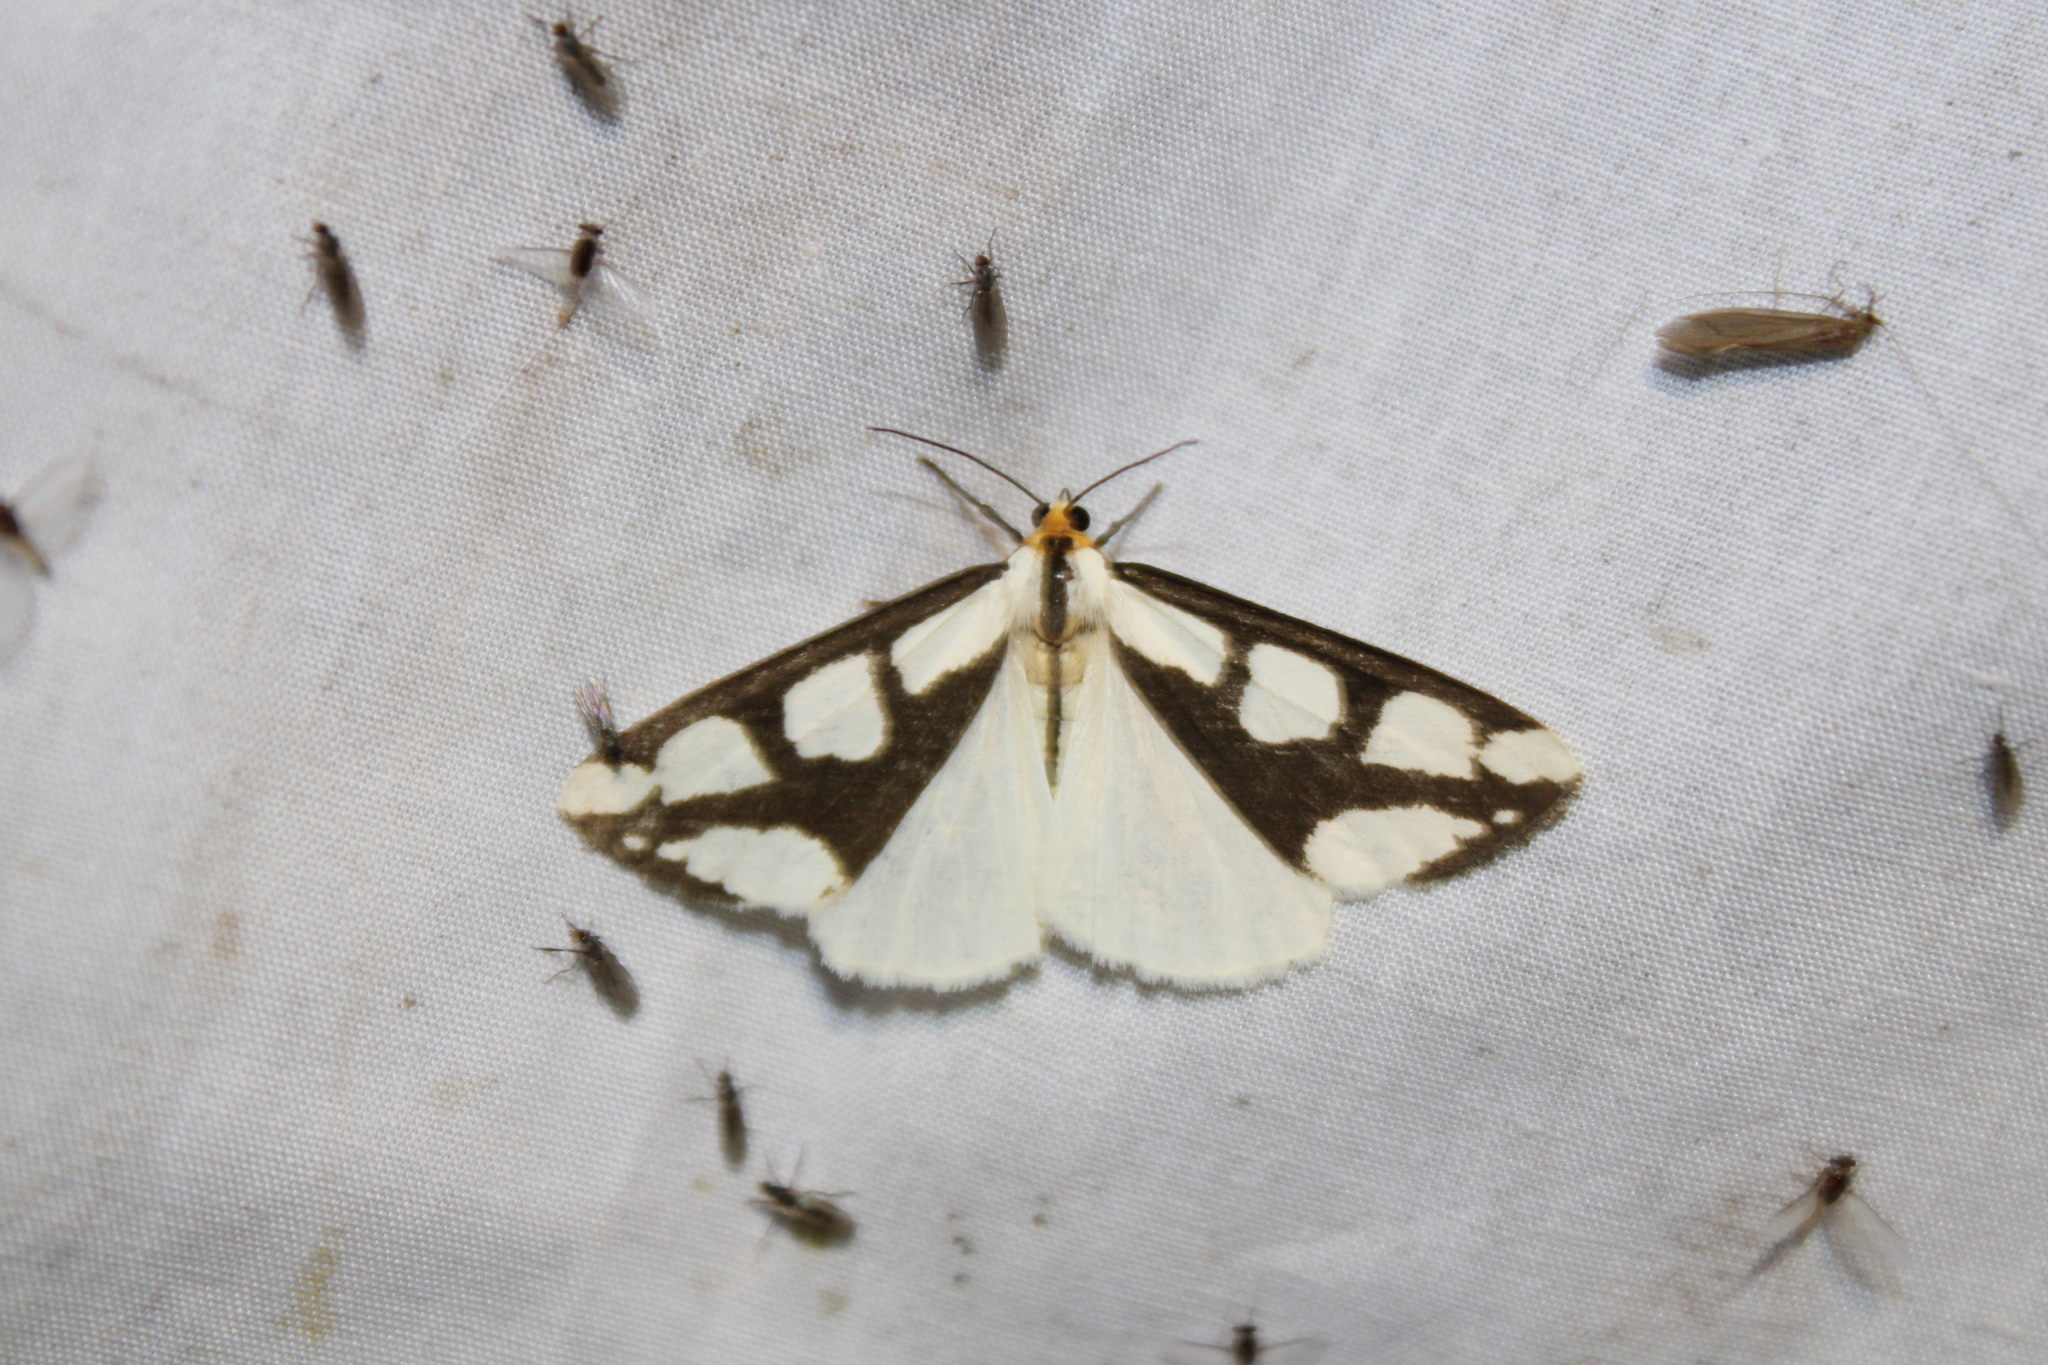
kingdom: Animalia
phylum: Arthropoda
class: Insecta
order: Lepidoptera
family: Erebidae
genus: Haploa
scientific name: Haploa lecontei
